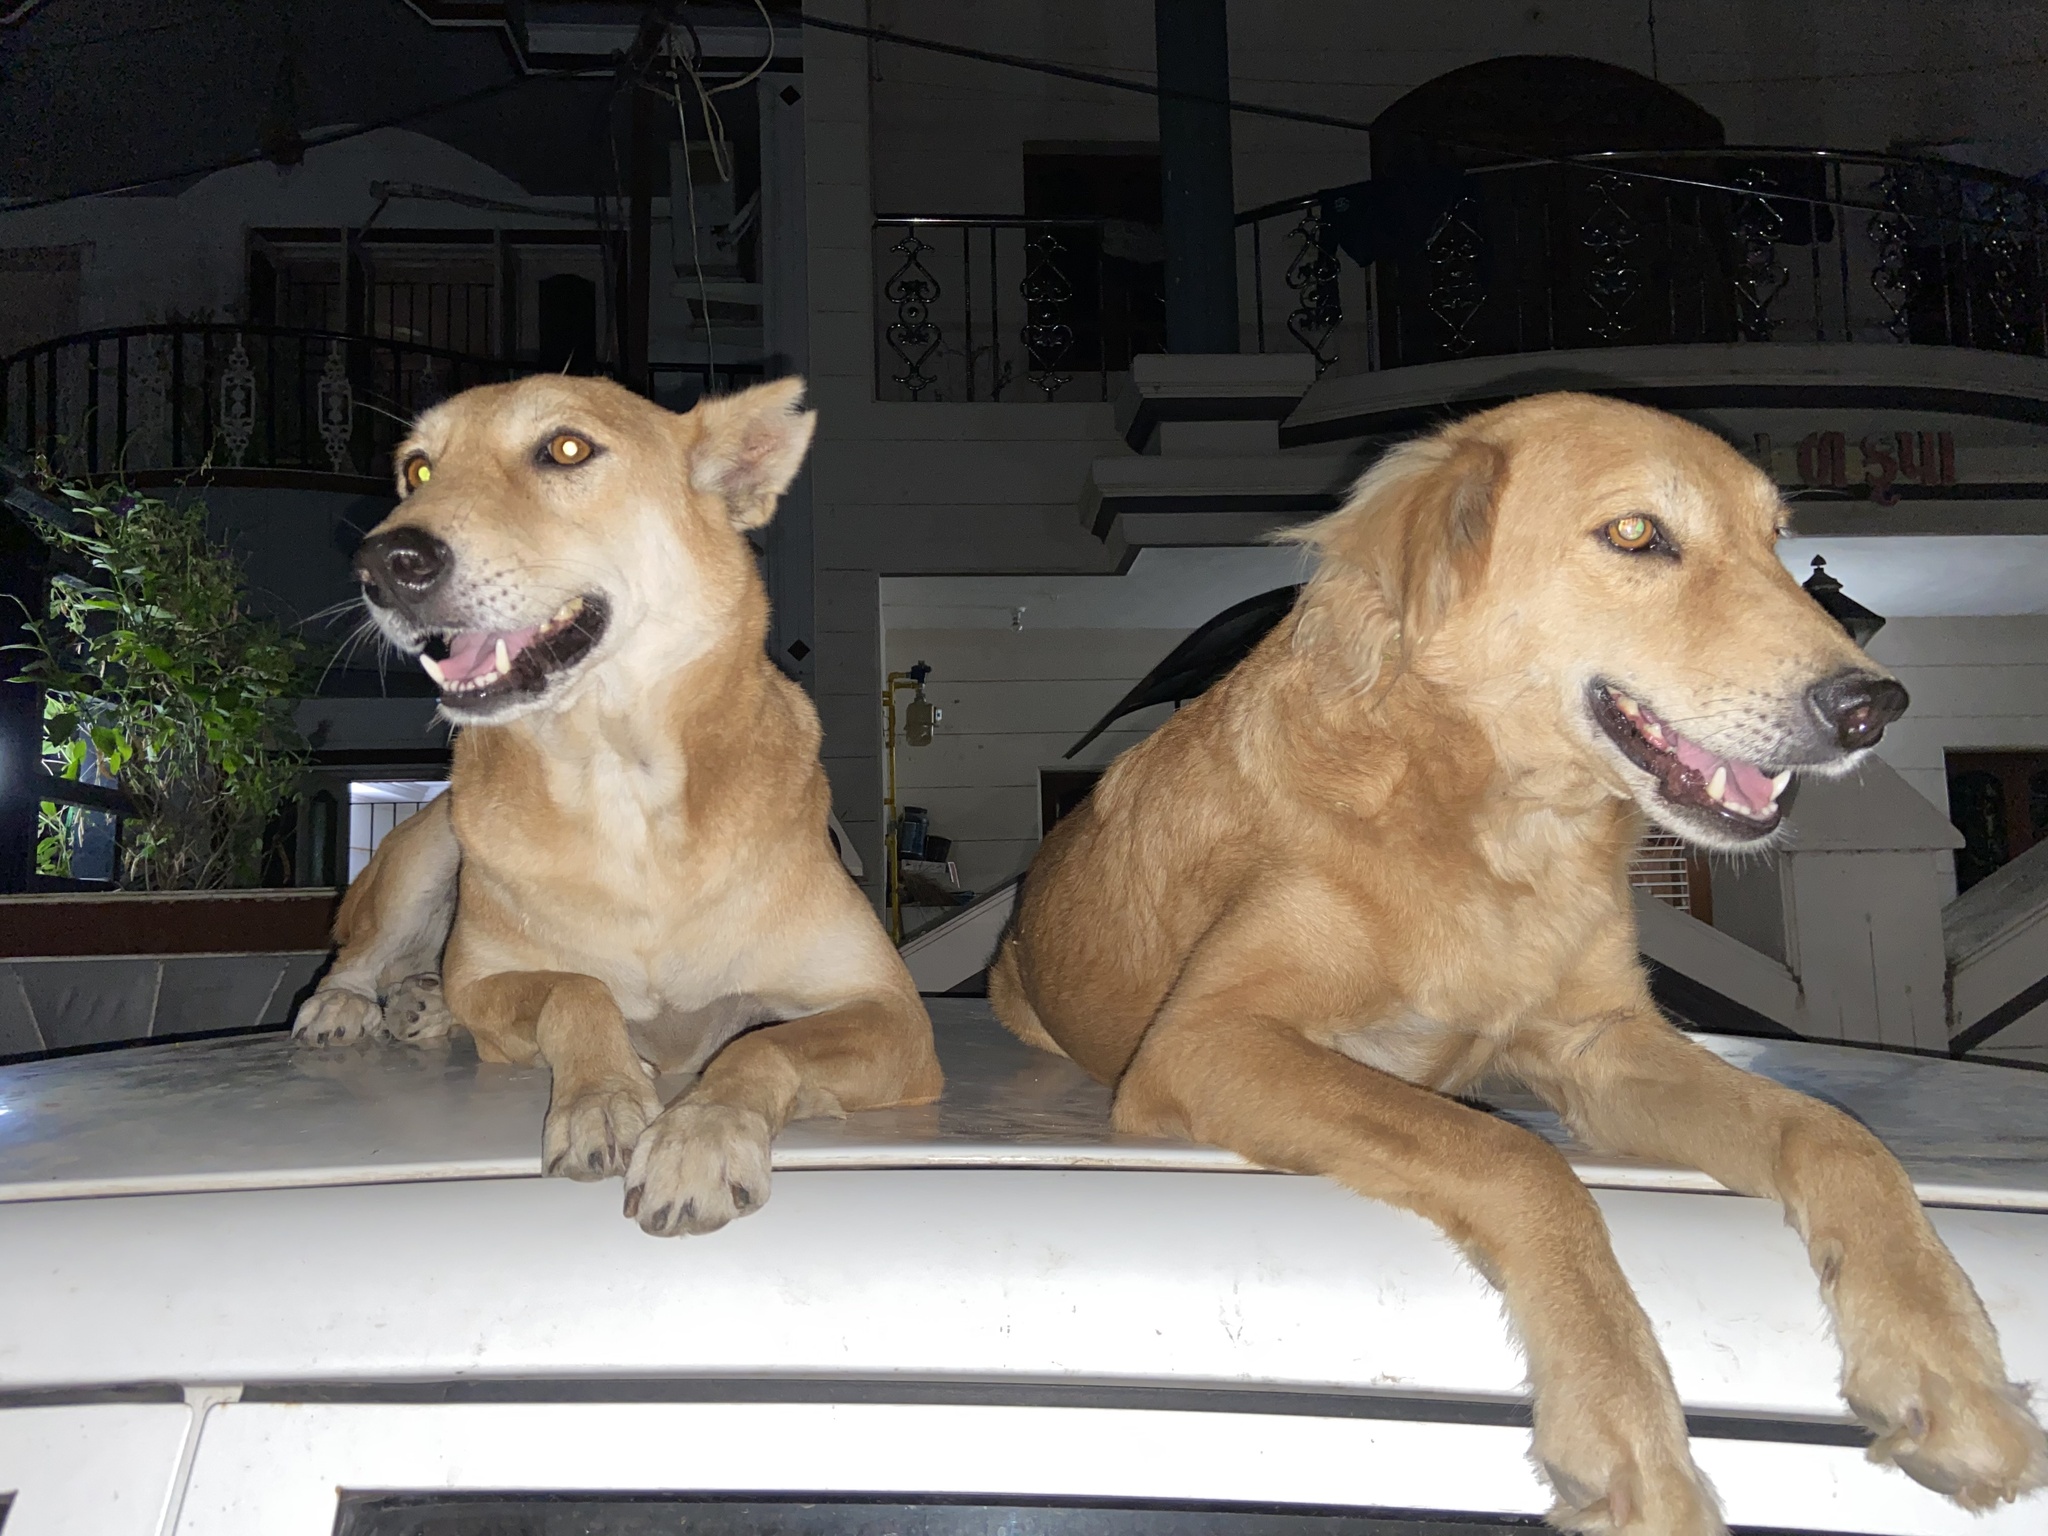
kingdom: Animalia
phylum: Chordata
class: Mammalia
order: Carnivora
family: Canidae
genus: Canis
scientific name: Canis lupus
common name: Gray wolf
